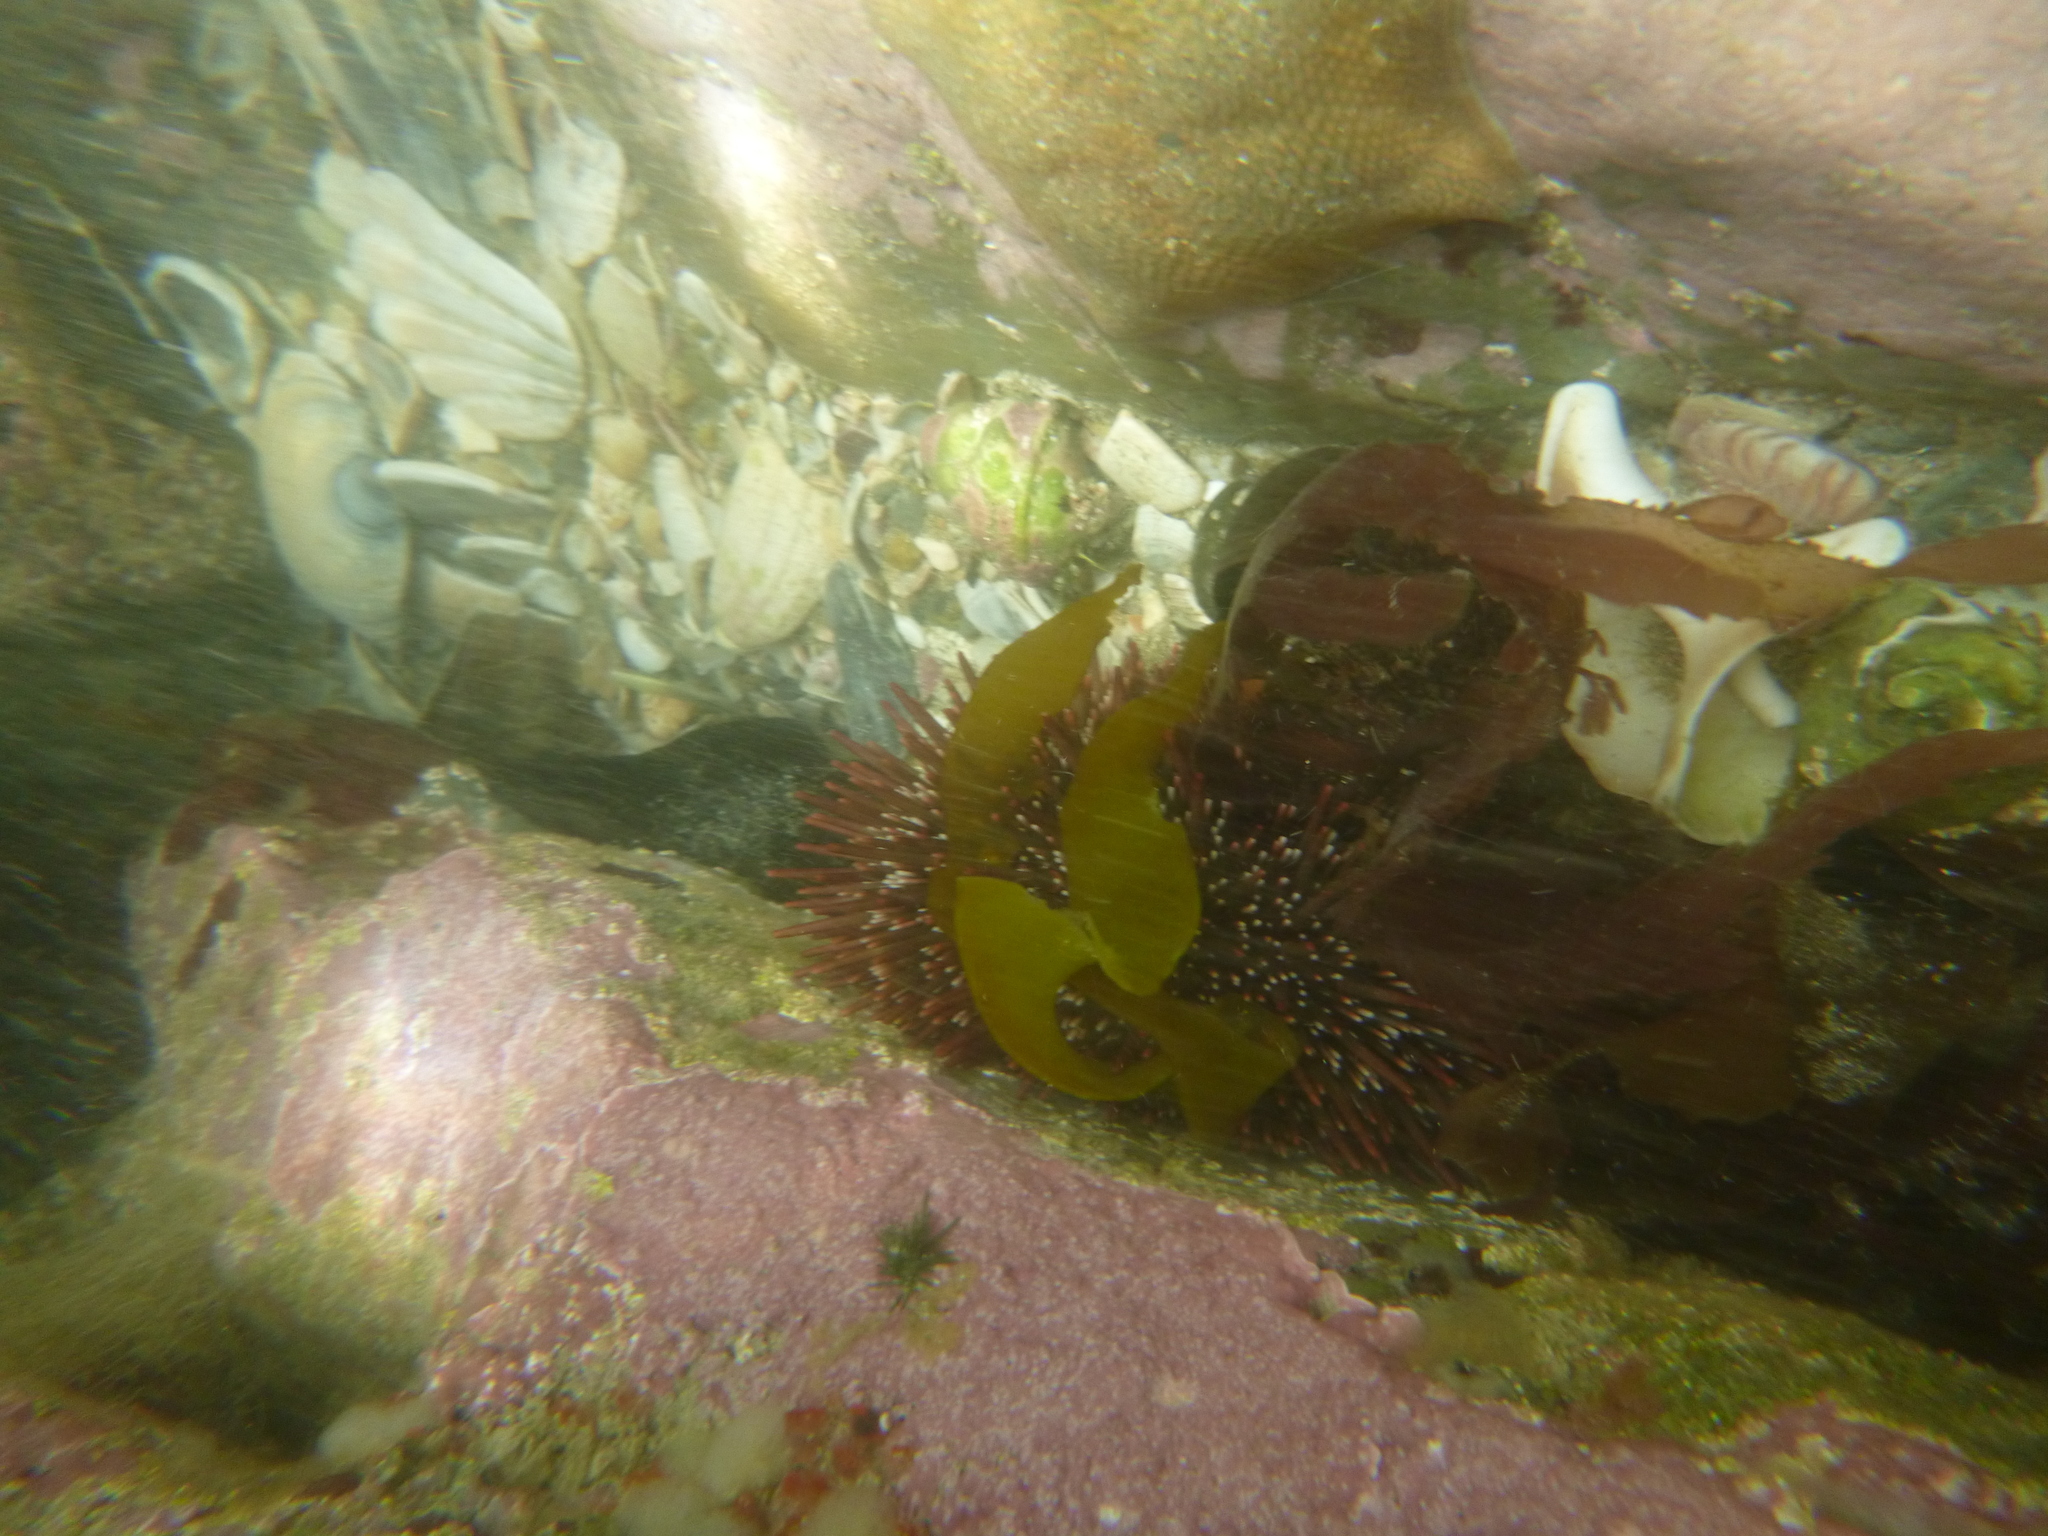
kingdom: Plantae
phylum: Rhodophyta
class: Florideophyceae
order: Corallinales
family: Spongitaceae
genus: Spongites
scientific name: Spongites yendoi
